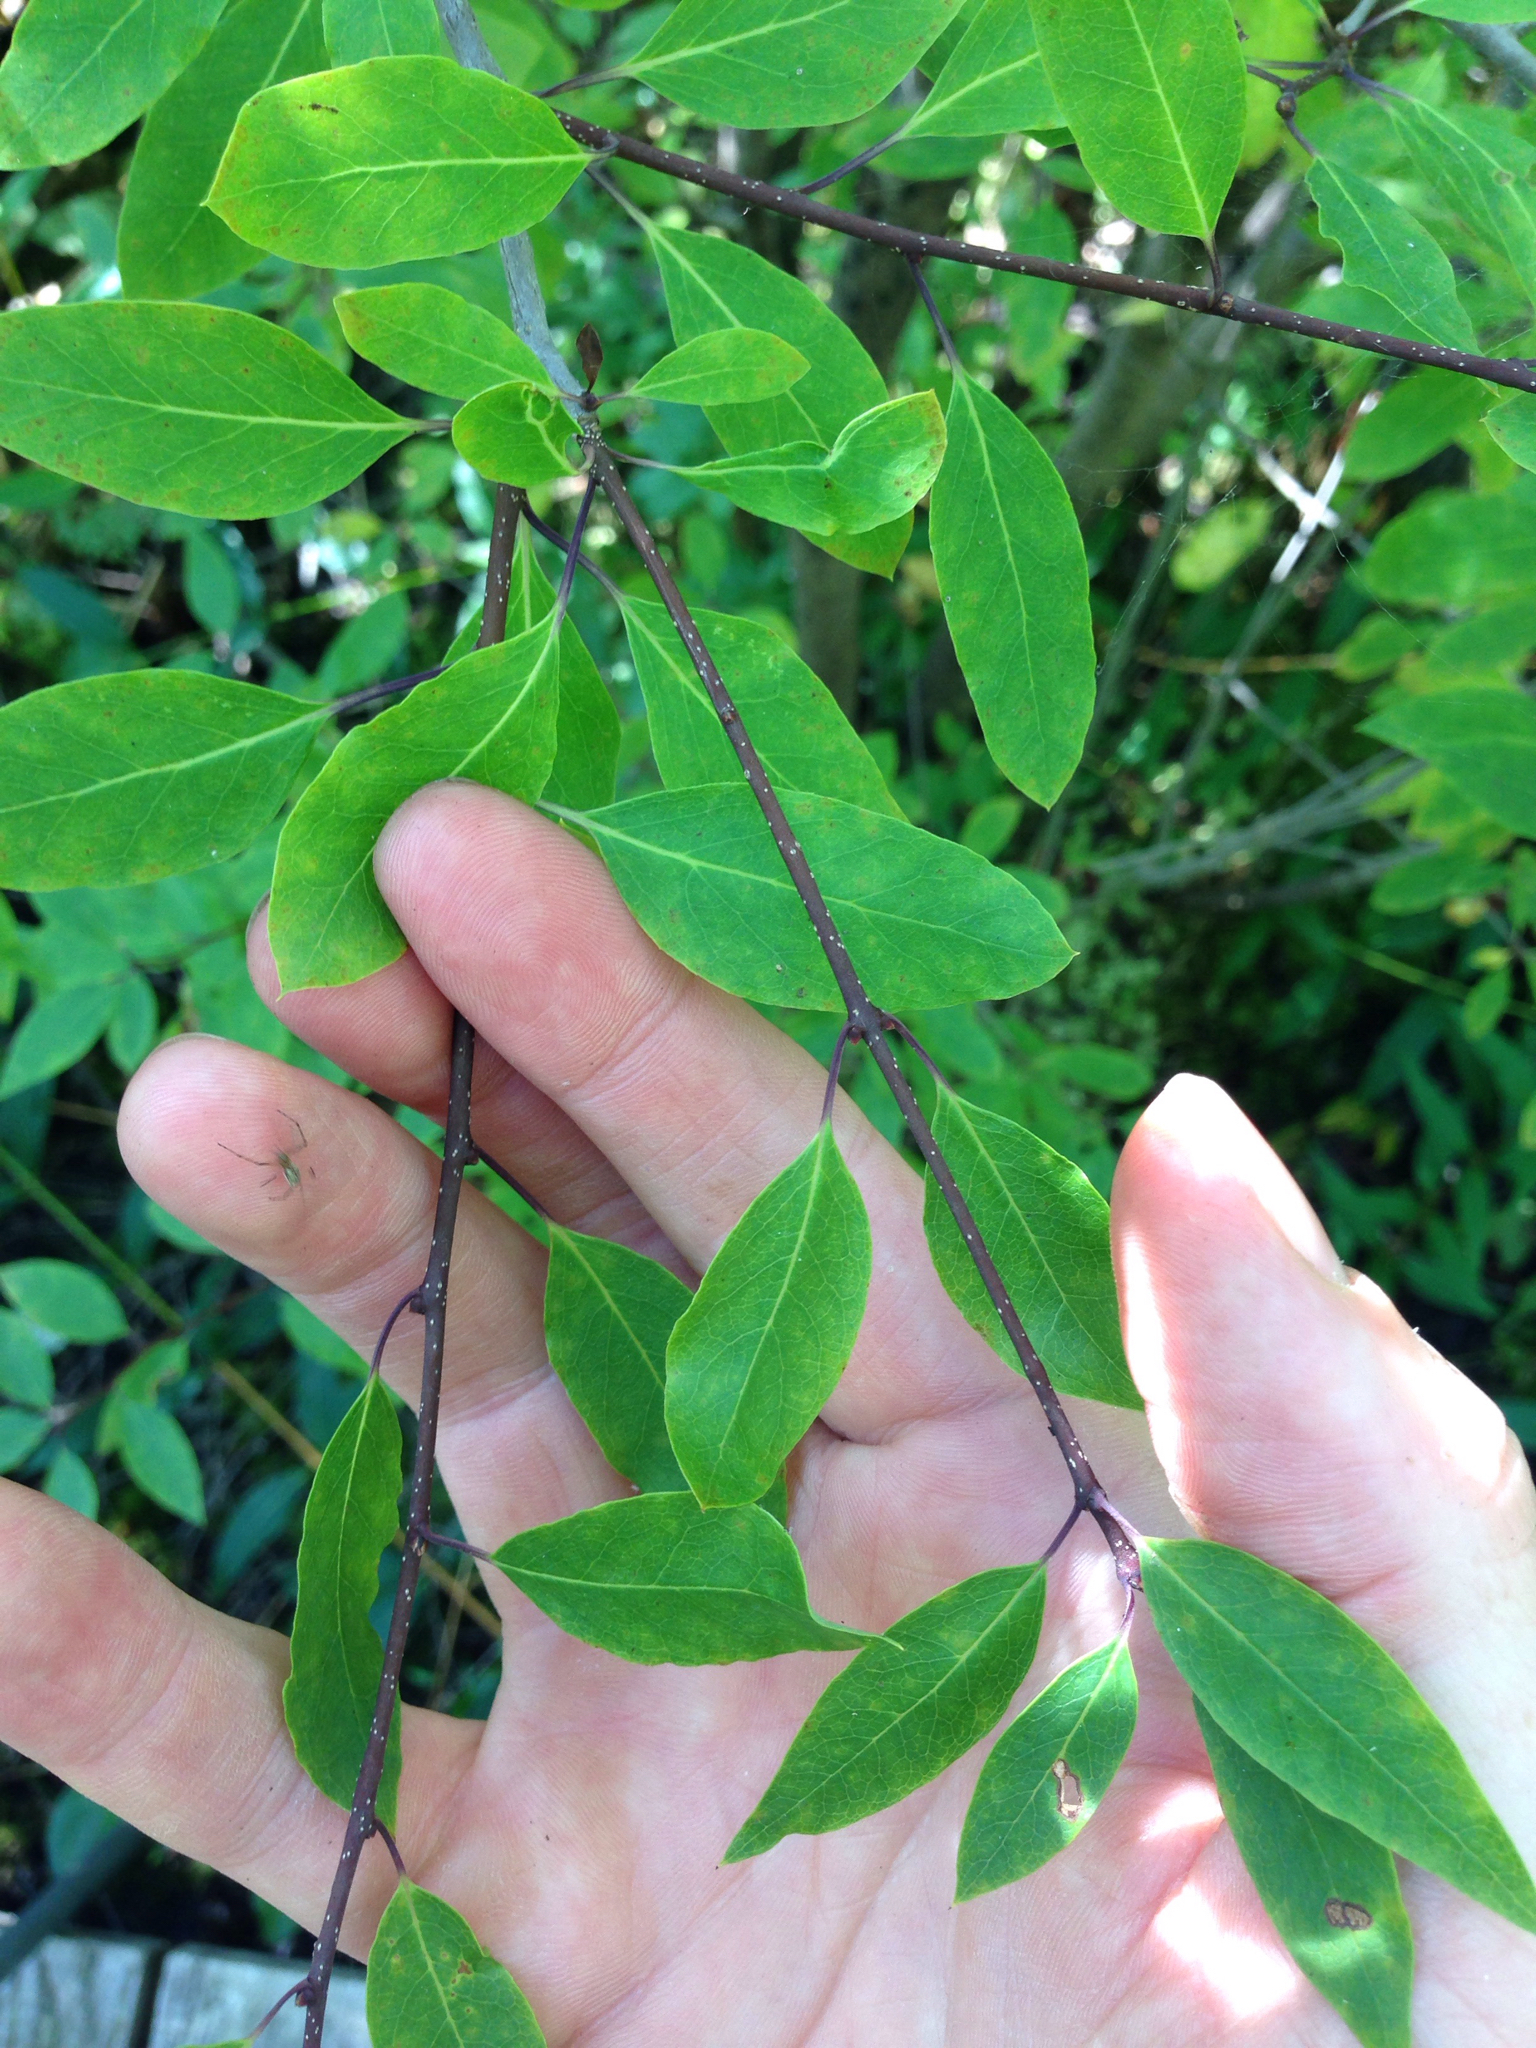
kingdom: Plantae
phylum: Tracheophyta
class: Magnoliopsida
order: Aquifoliales
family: Aquifoliaceae
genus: Ilex
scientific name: Ilex mucronata
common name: Catberry
